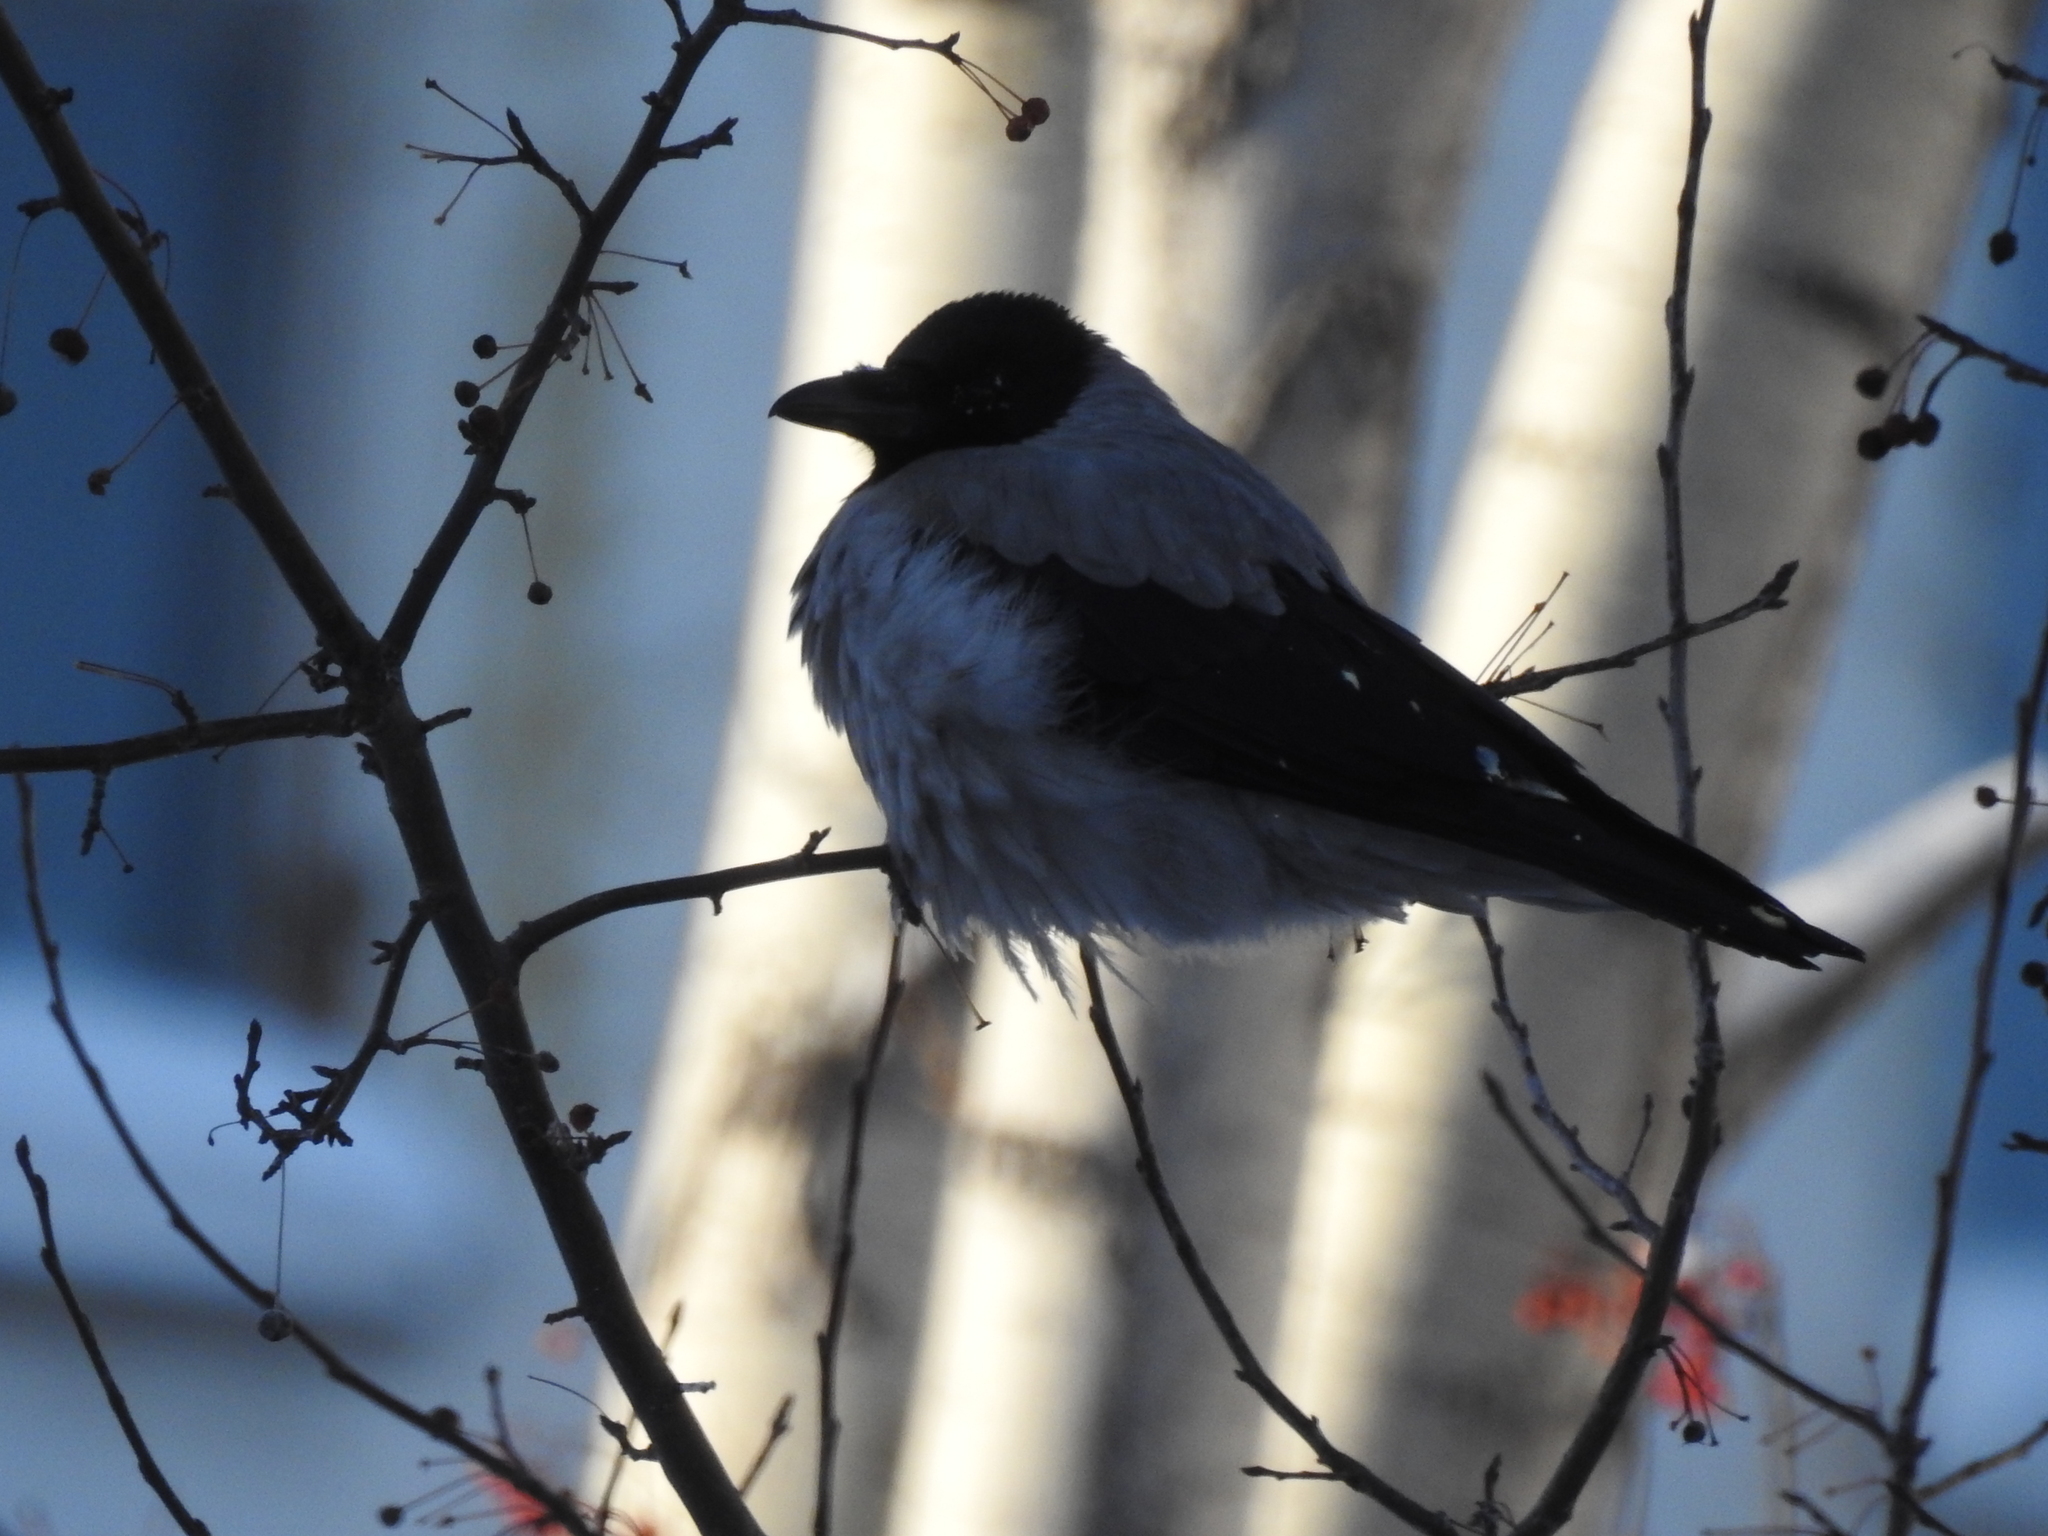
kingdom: Animalia
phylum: Chordata
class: Aves
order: Passeriformes
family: Corvidae
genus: Corvus
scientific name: Corvus cornix
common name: Hooded crow
